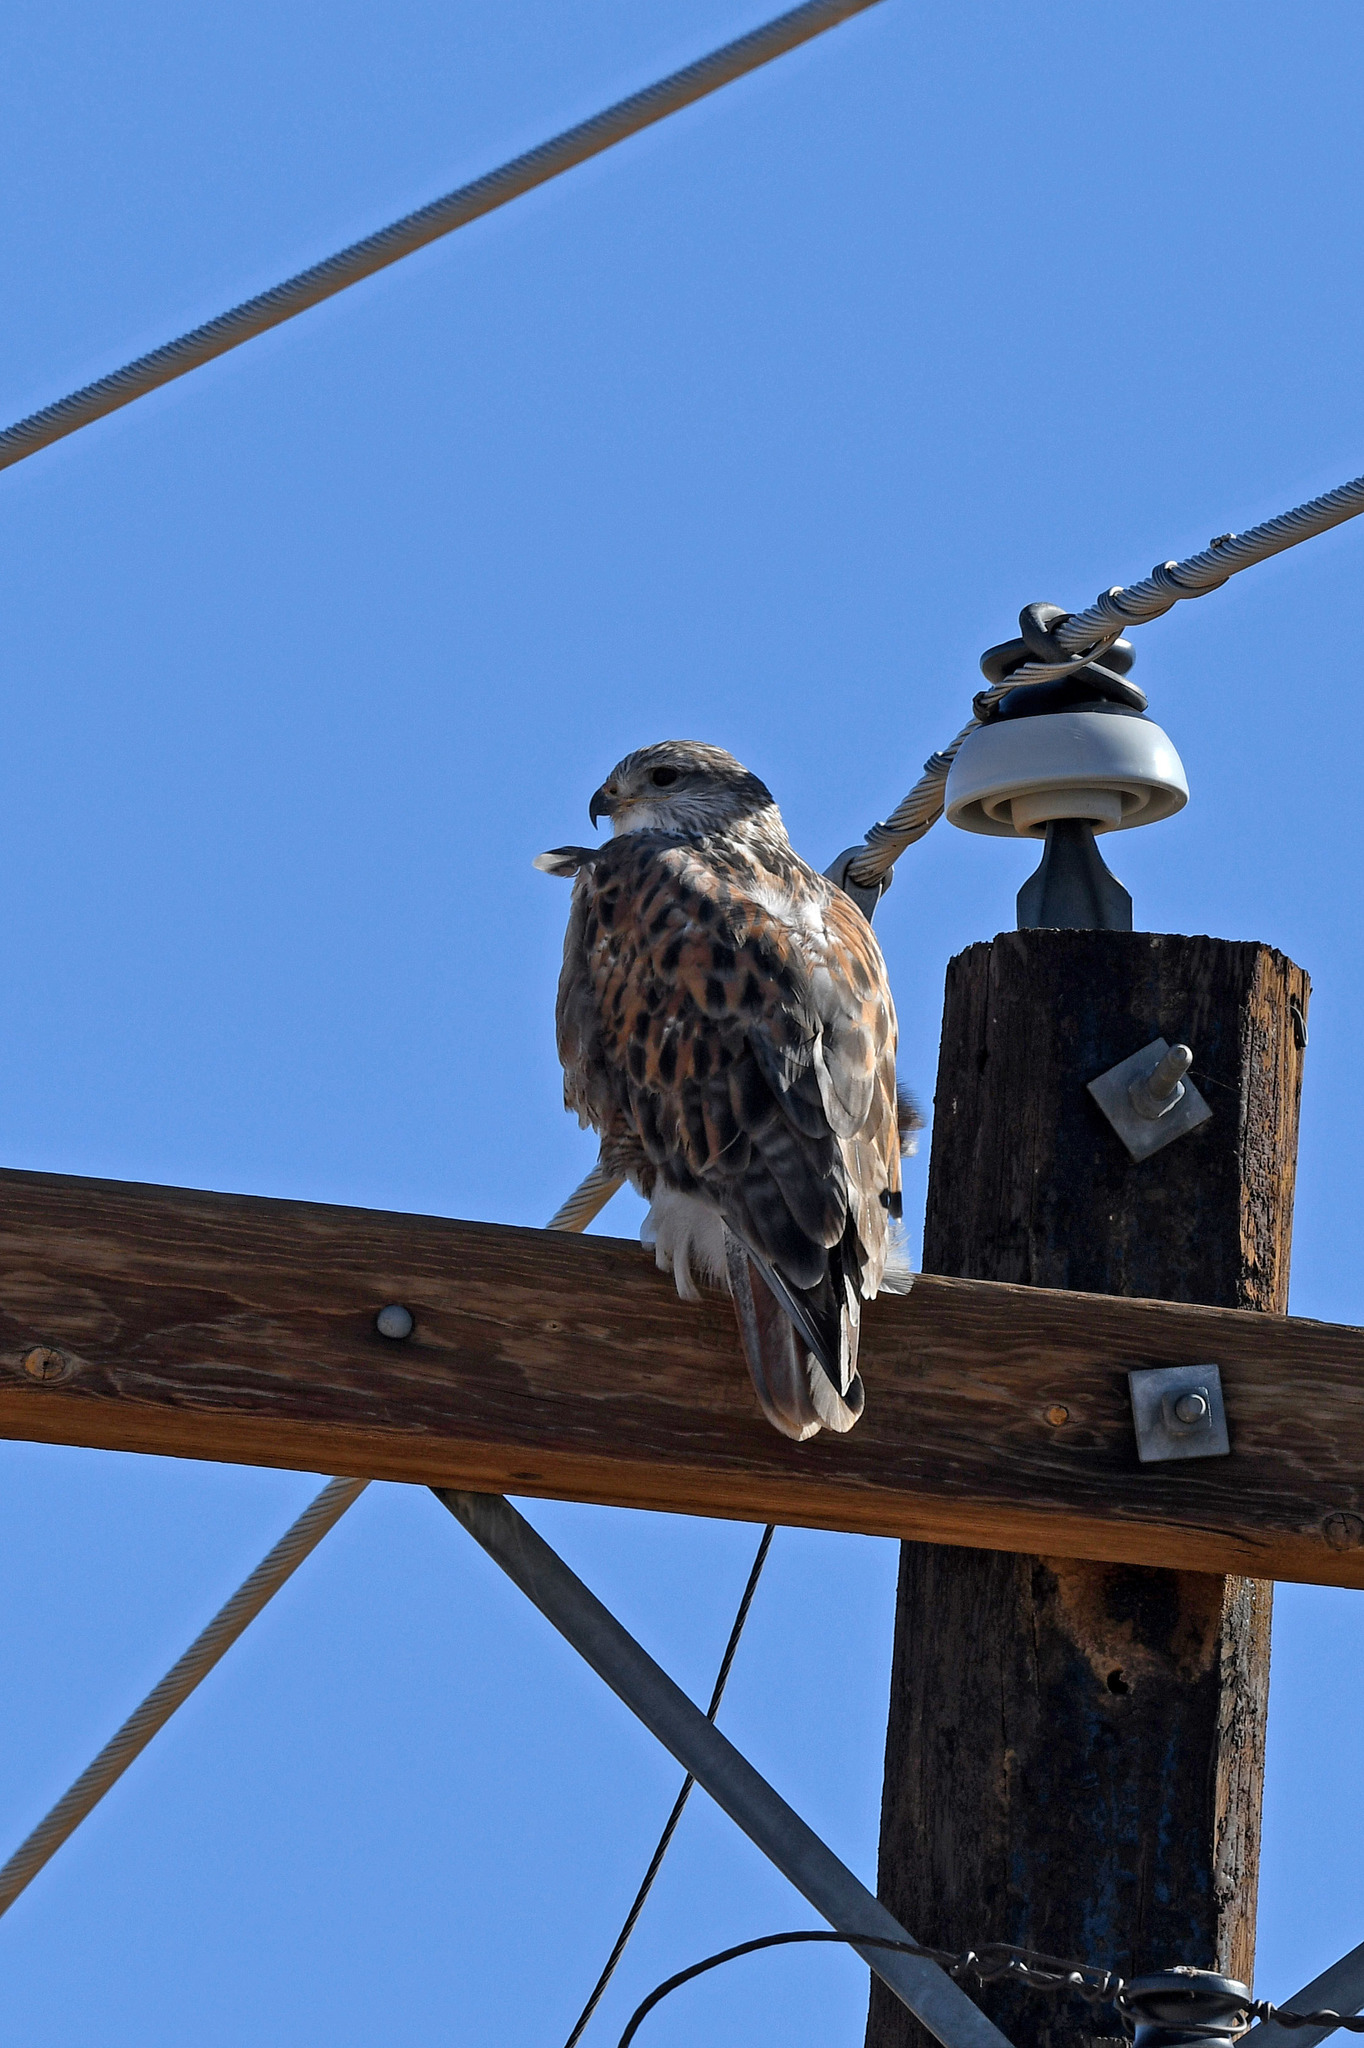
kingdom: Animalia
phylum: Chordata
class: Aves
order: Accipitriformes
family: Accipitridae
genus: Buteo
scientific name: Buteo regalis
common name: Ferruginous hawk
